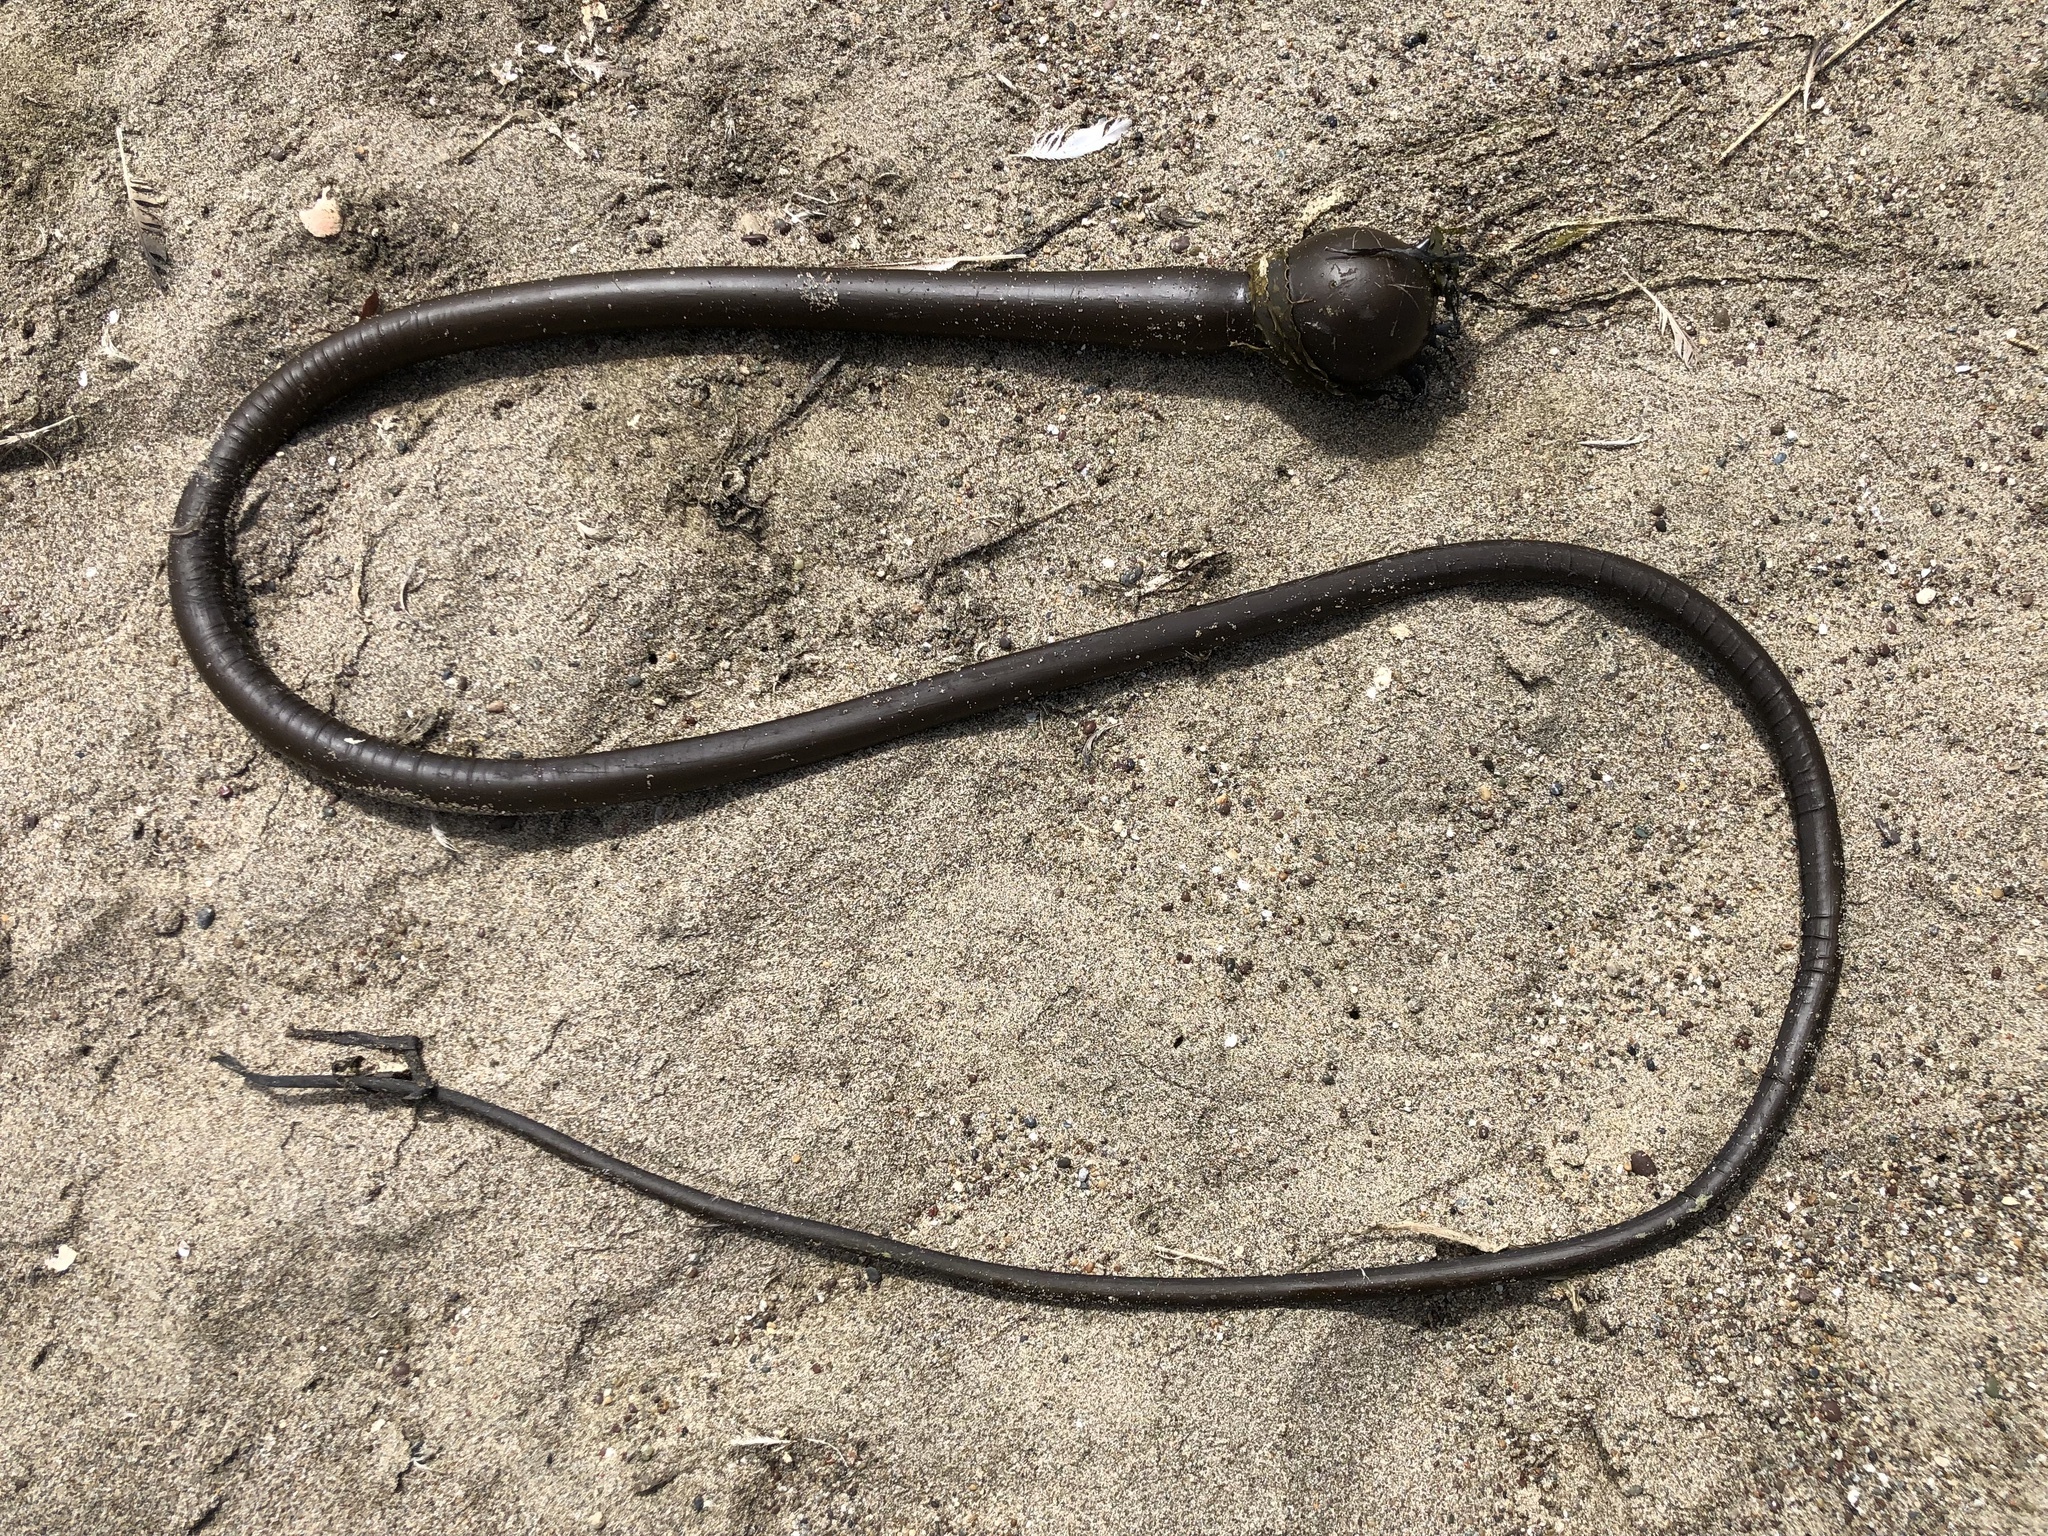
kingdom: Chromista
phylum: Ochrophyta
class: Phaeophyceae
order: Laminariales
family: Laminariaceae
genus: Nereocystis
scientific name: Nereocystis luetkeana
